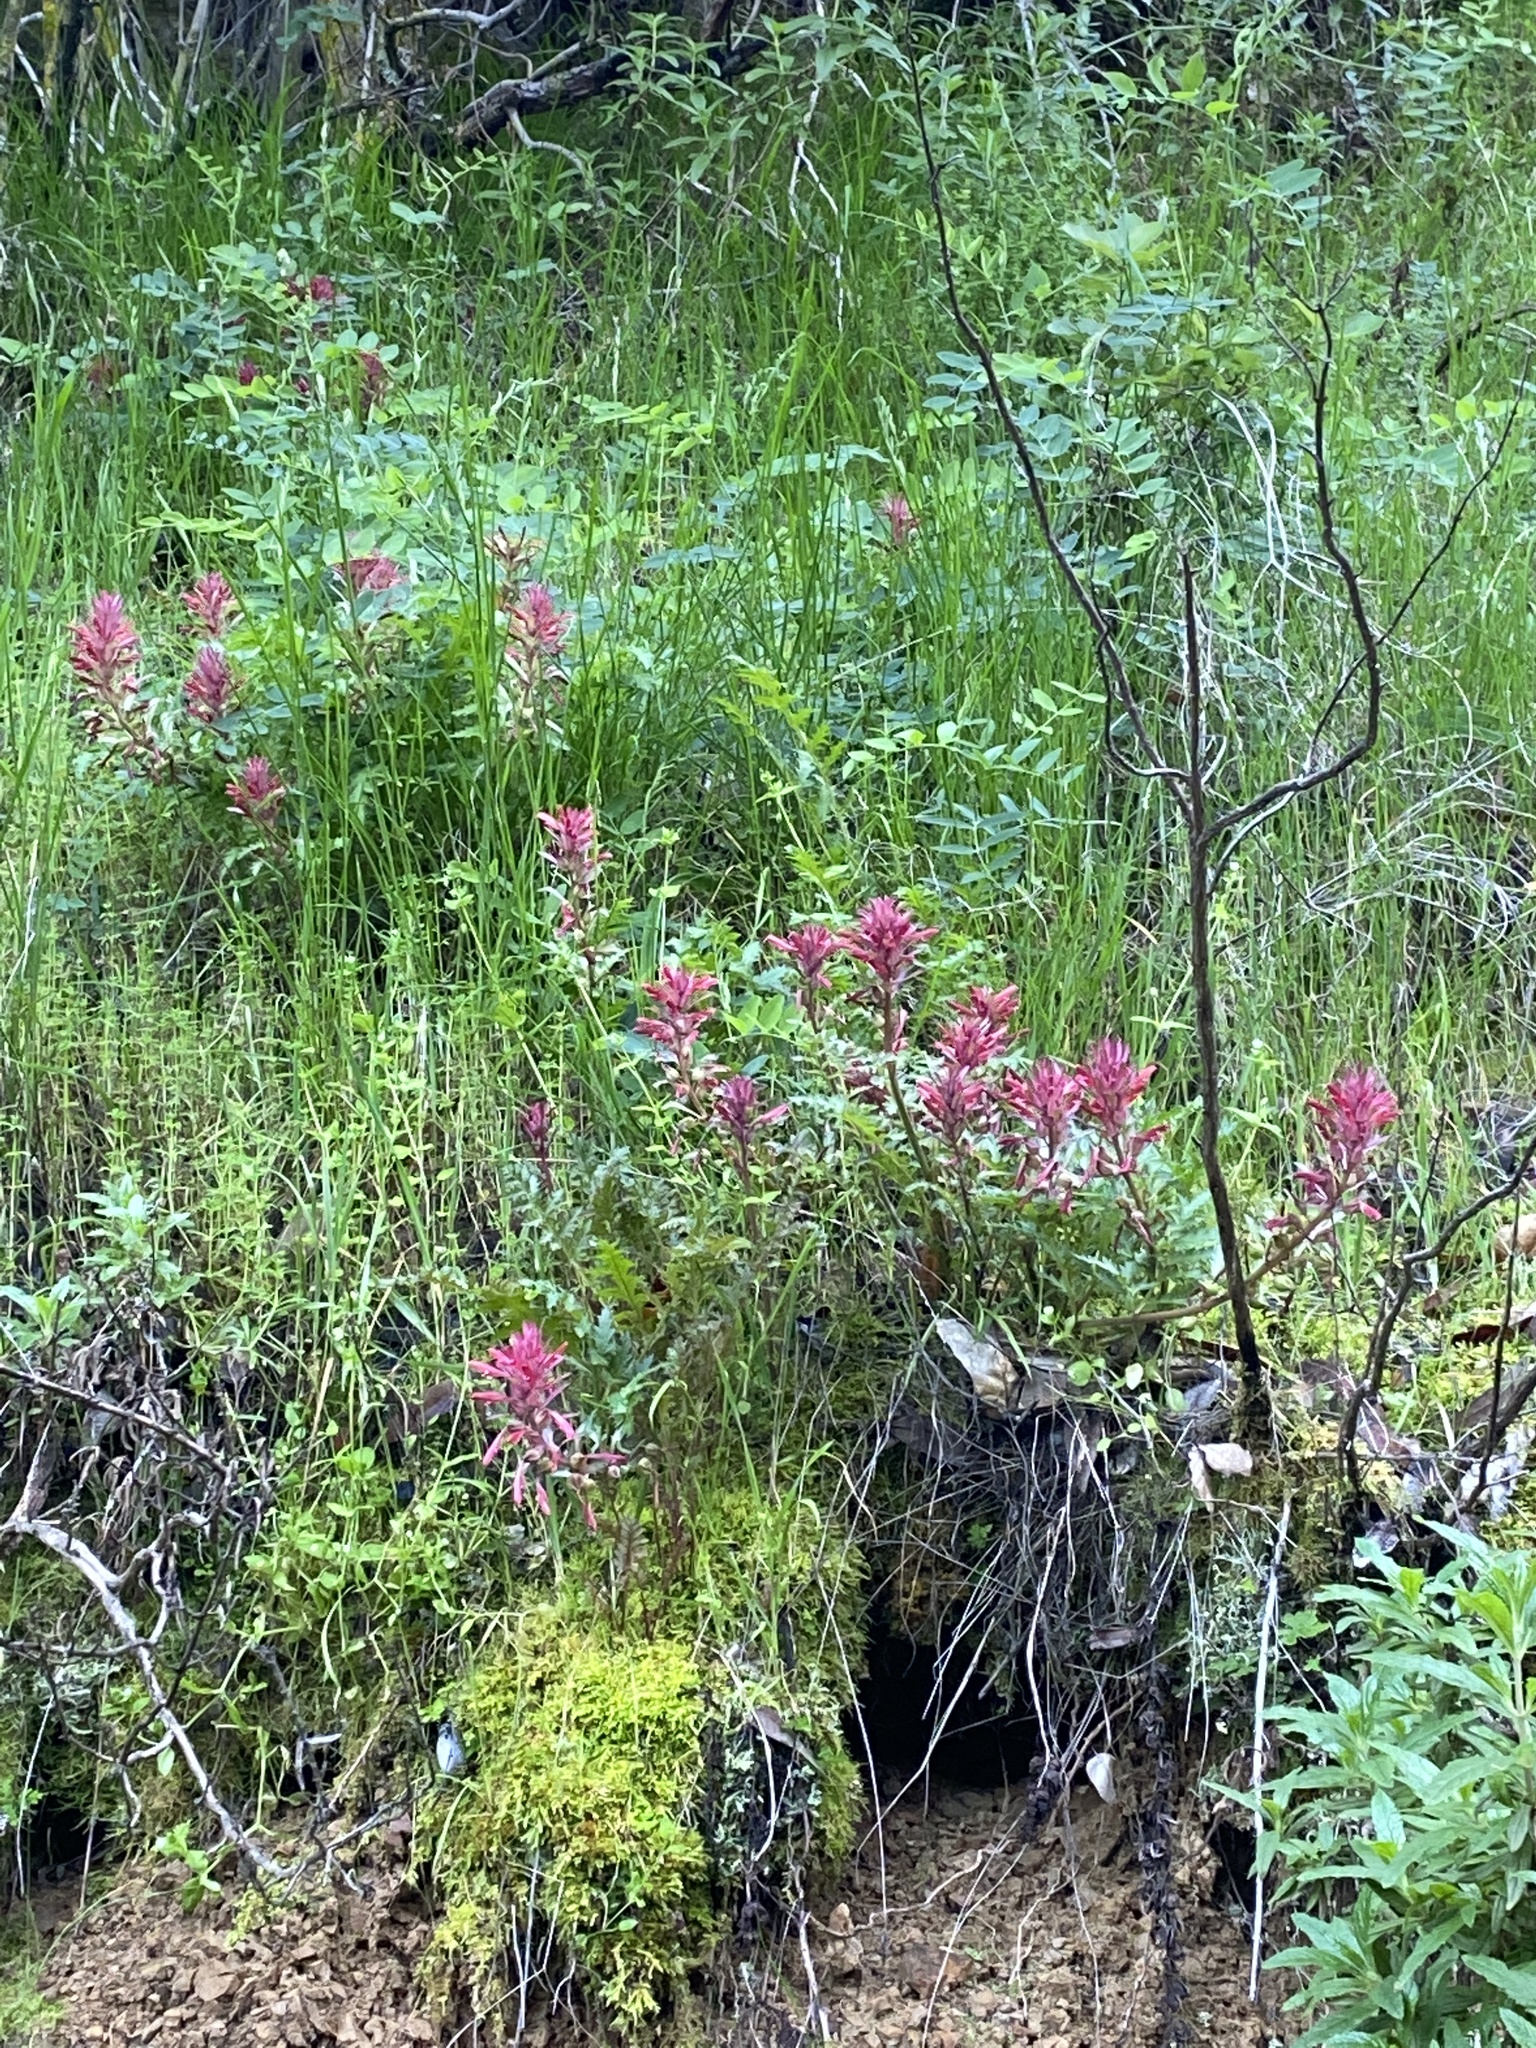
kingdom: Plantae
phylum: Tracheophyta
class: Magnoliopsida
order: Lamiales
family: Orobanchaceae
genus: Pedicularis
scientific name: Pedicularis densiflora
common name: Indian warrior
